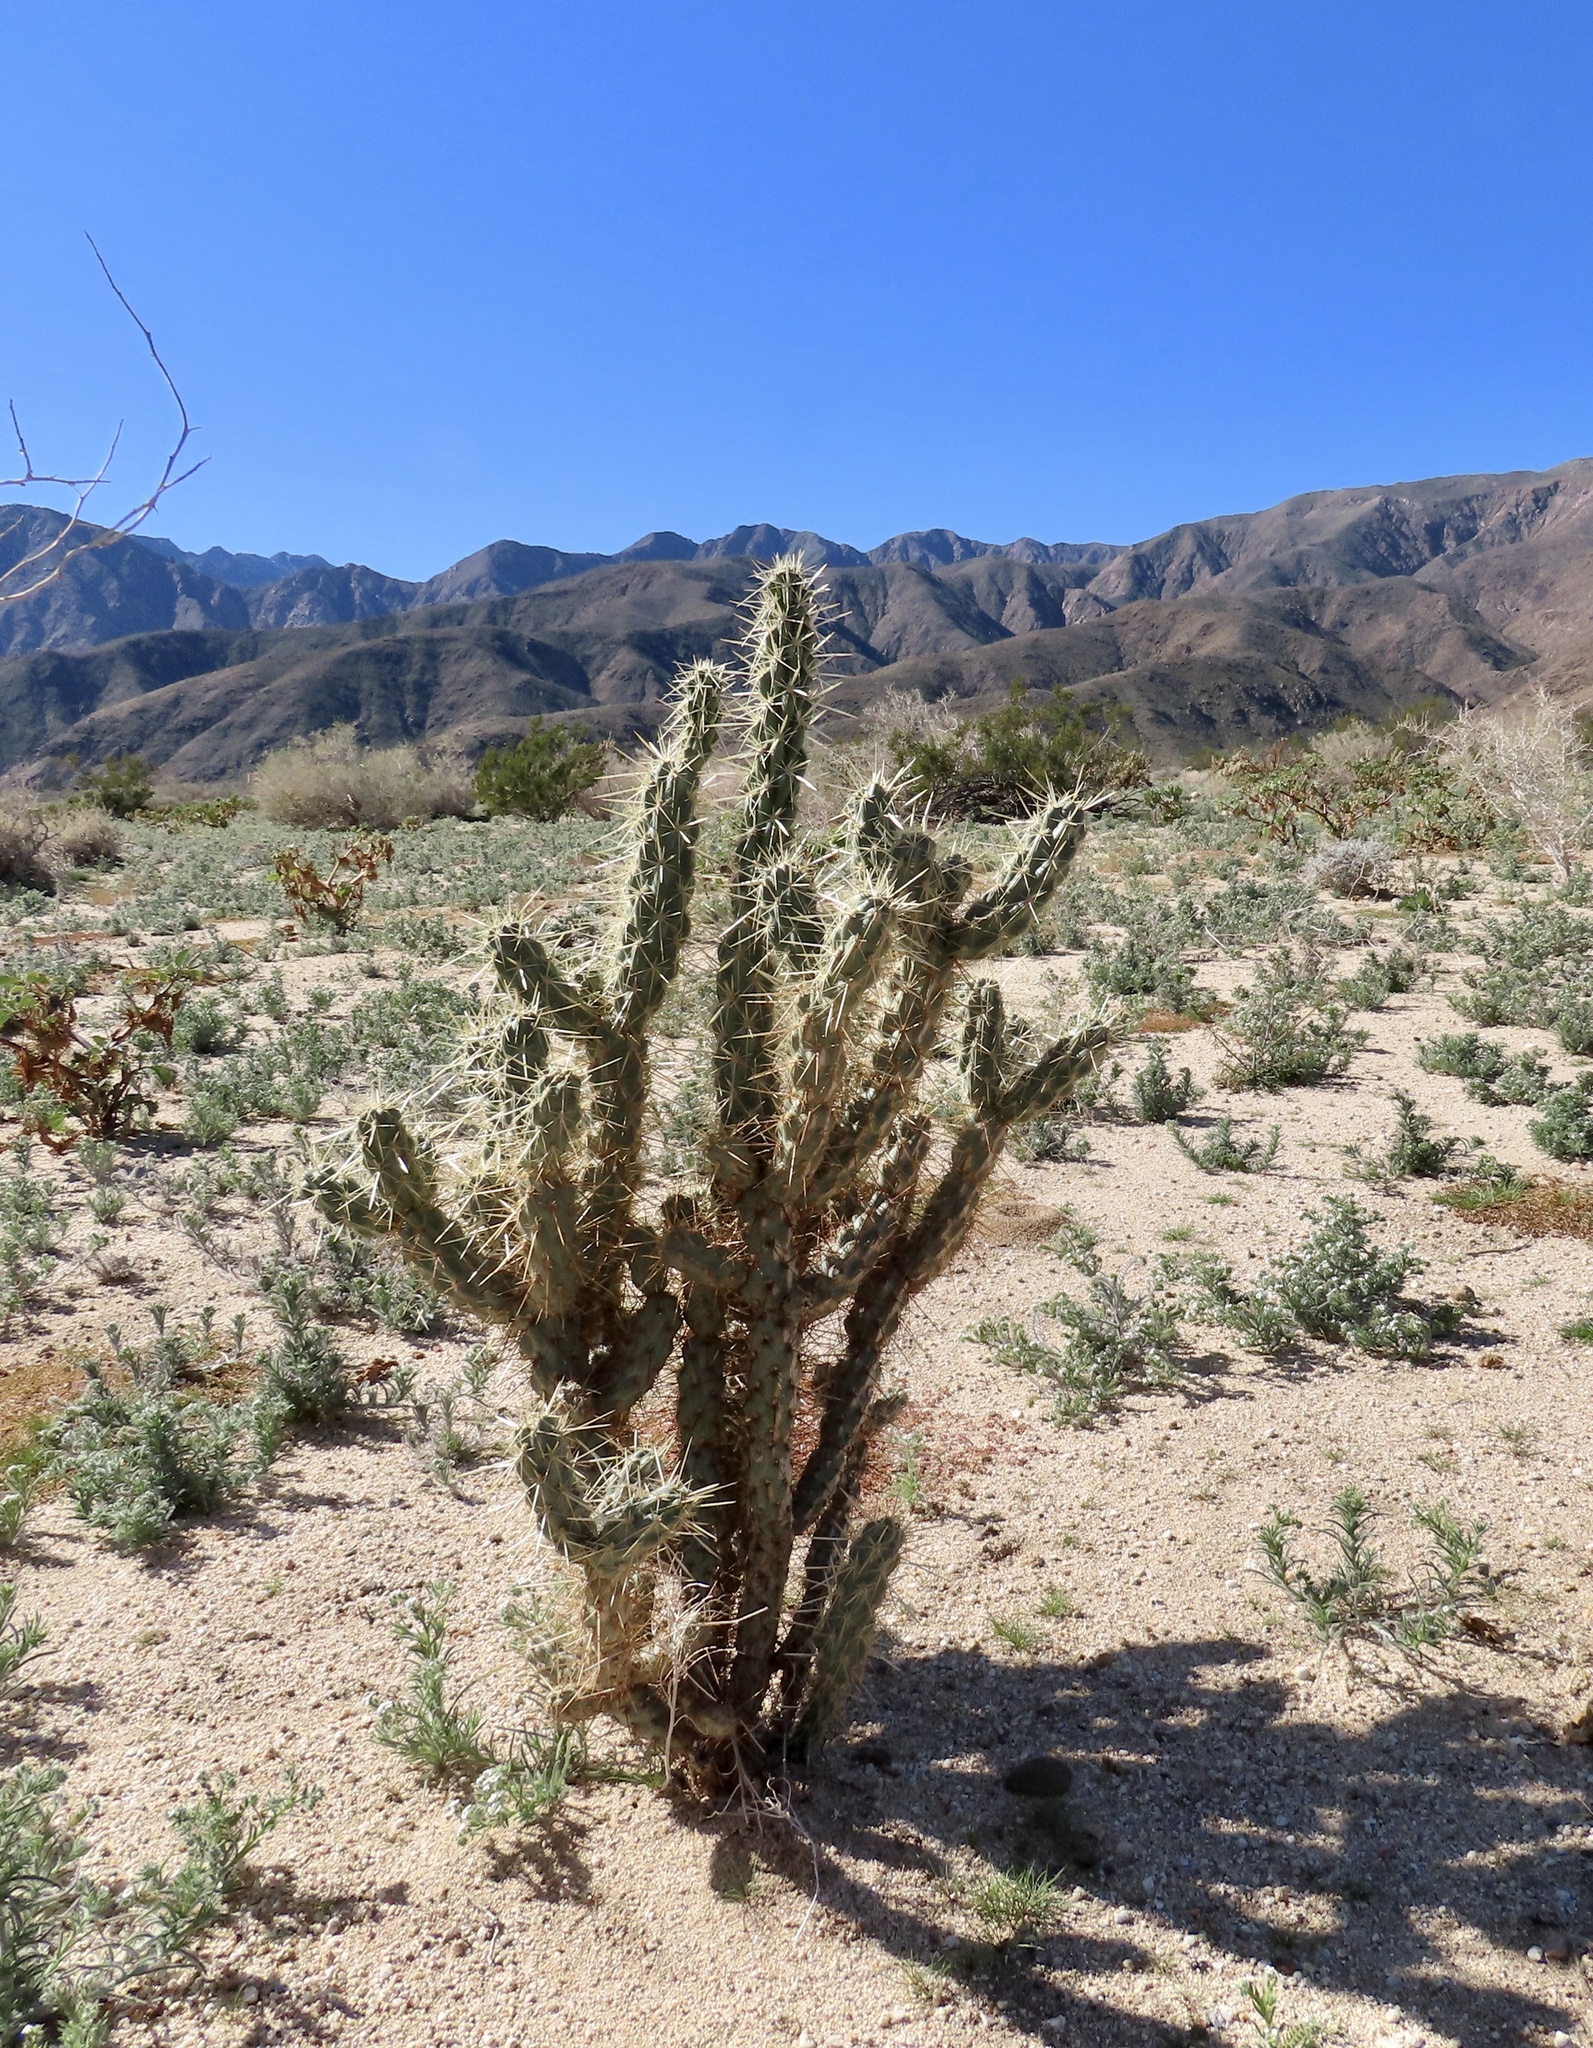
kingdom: Plantae
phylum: Tracheophyta
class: Magnoliopsida
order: Caryophyllales
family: Cactaceae
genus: Cylindropuntia
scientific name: Cylindropuntia ganderi
